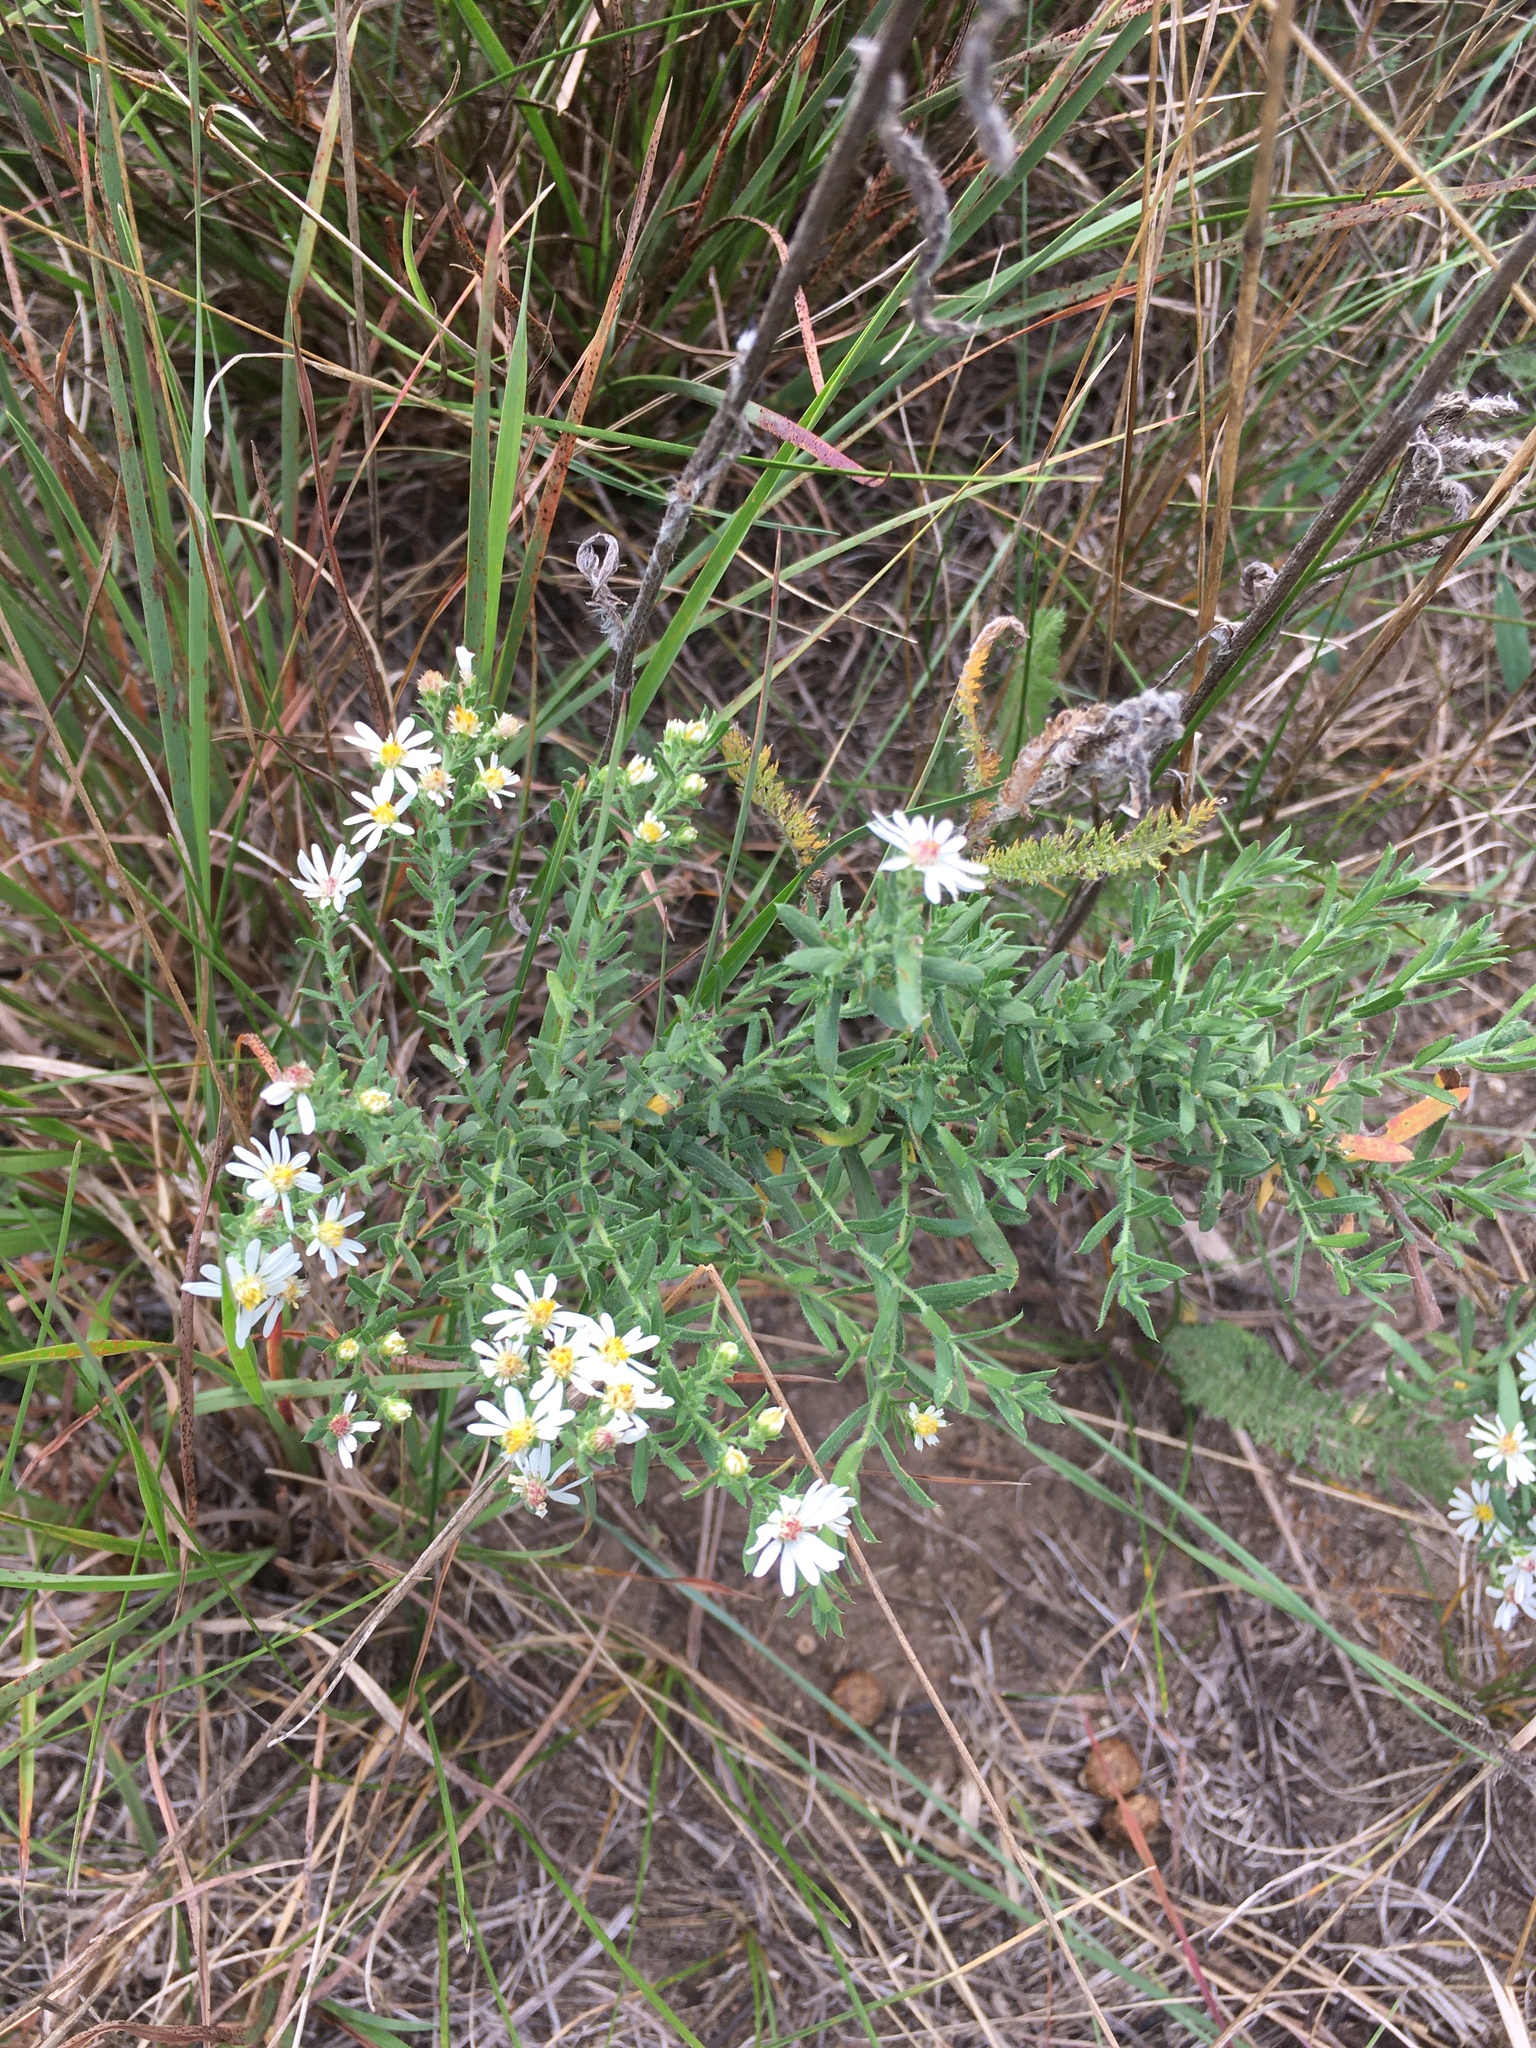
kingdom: Plantae
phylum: Tracheophyta
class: Magnoliopsida
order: Asterales
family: Asteraceae
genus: Symphyotrichum
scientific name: Symphyotrichum ericoides
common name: Heath aster
